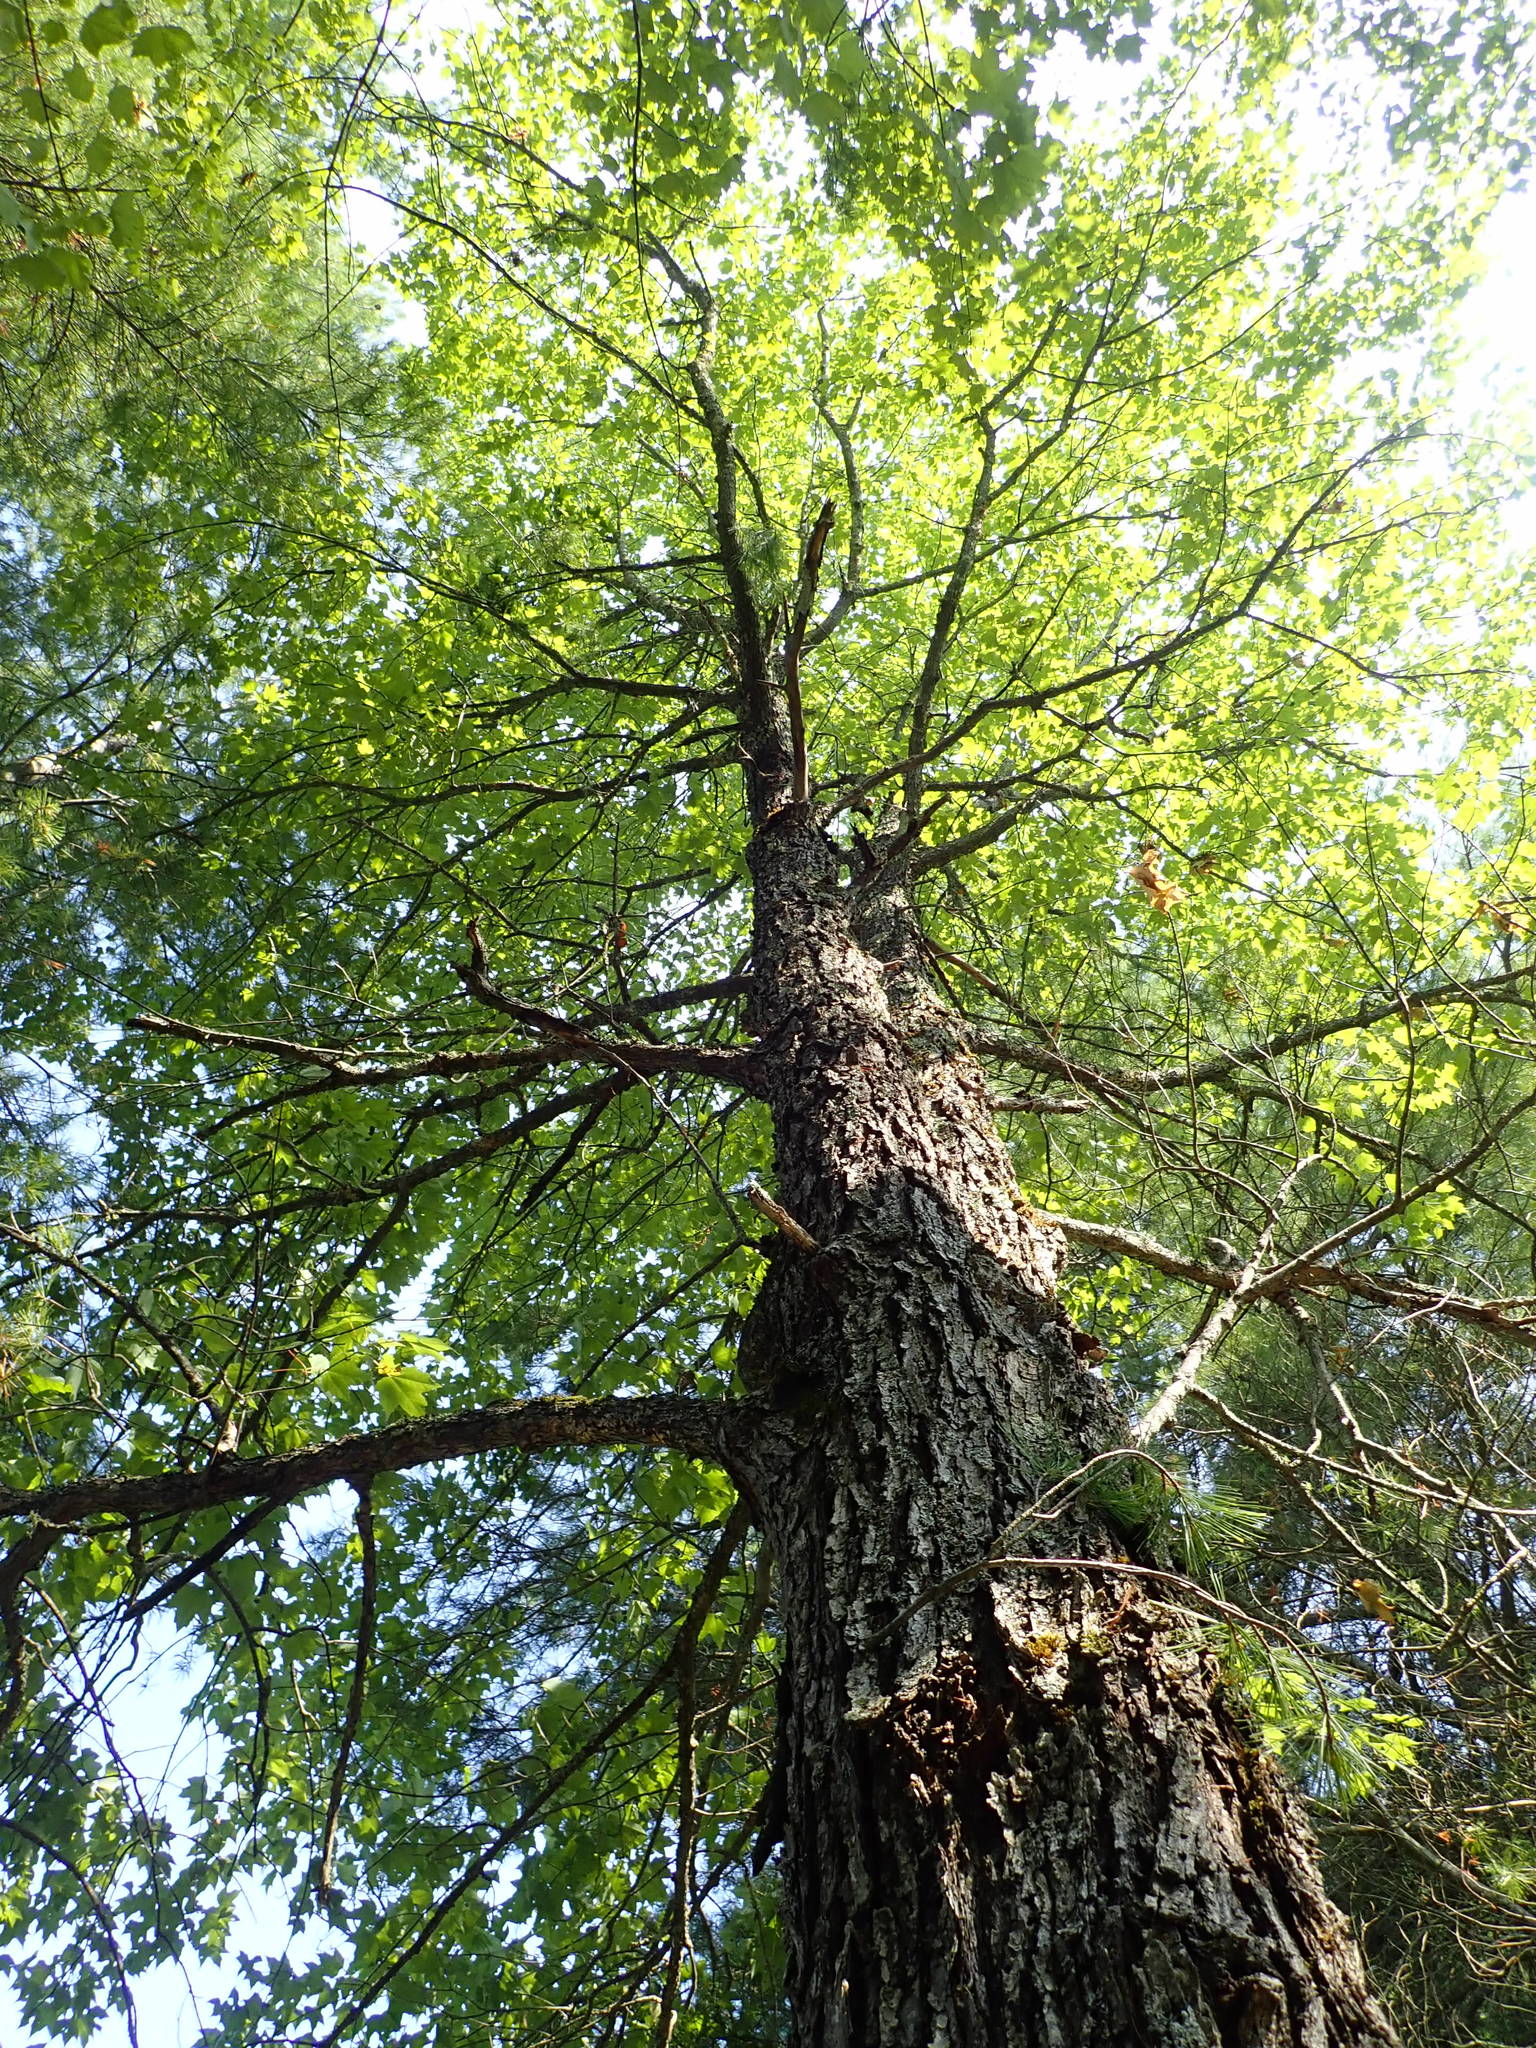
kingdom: Plantae
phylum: Tracheophyta
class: Magnoliopsida
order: Sapindales
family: Sapindaceae
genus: Acer
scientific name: Acer rubrum
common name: Red maple
